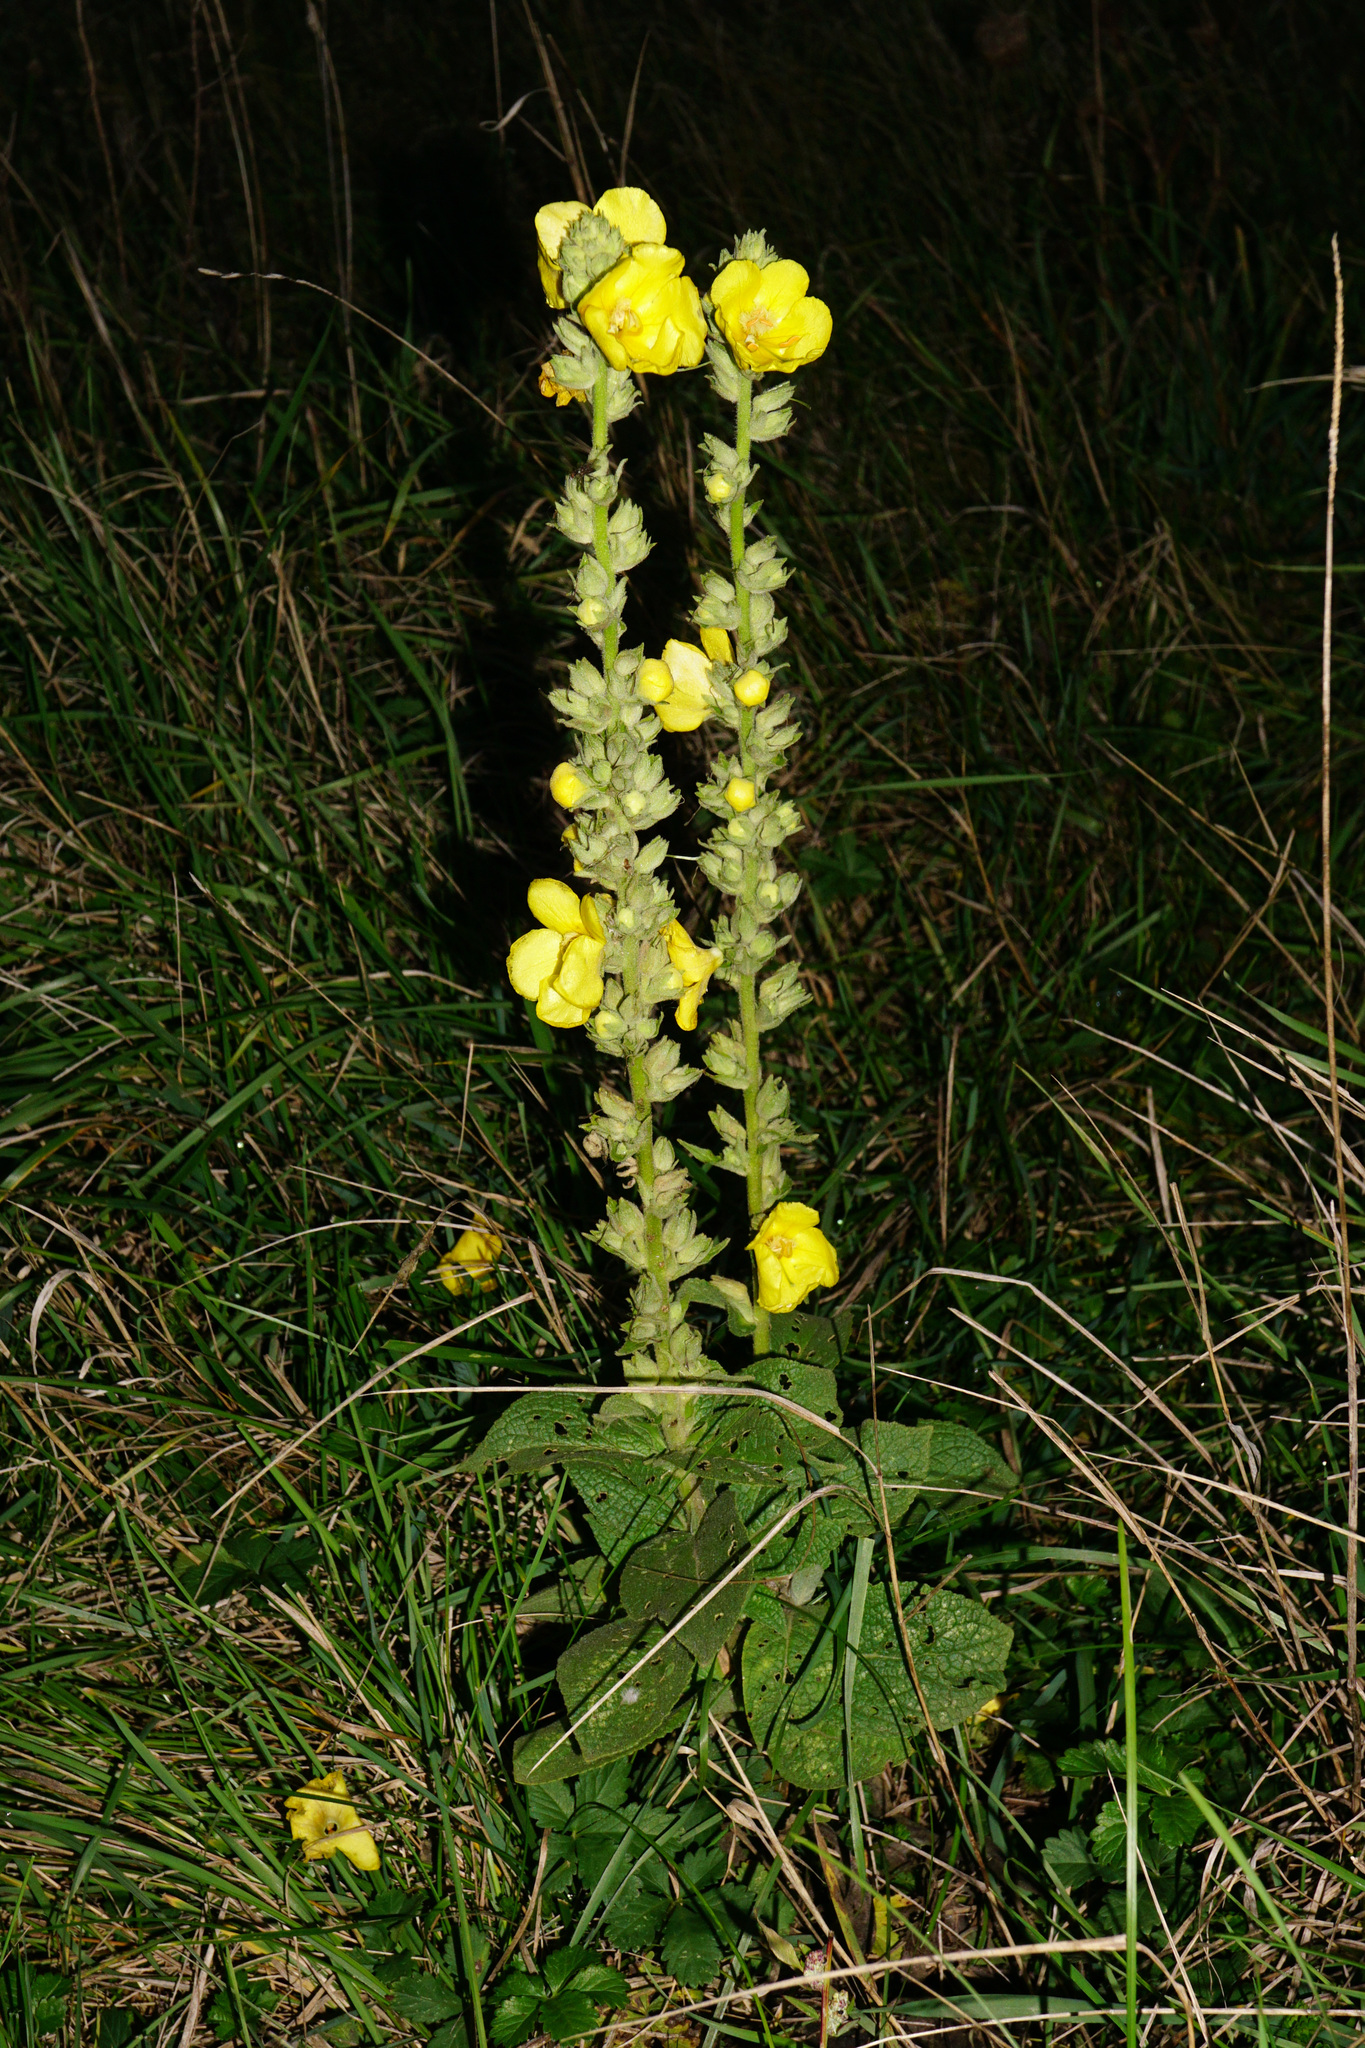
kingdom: Plantae
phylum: Tracheophyta
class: Magnoliopsida
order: Lamiales
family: Scrophulariaceae
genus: Verbascum
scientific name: Verbascum phlomoides
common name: Orange mullein
